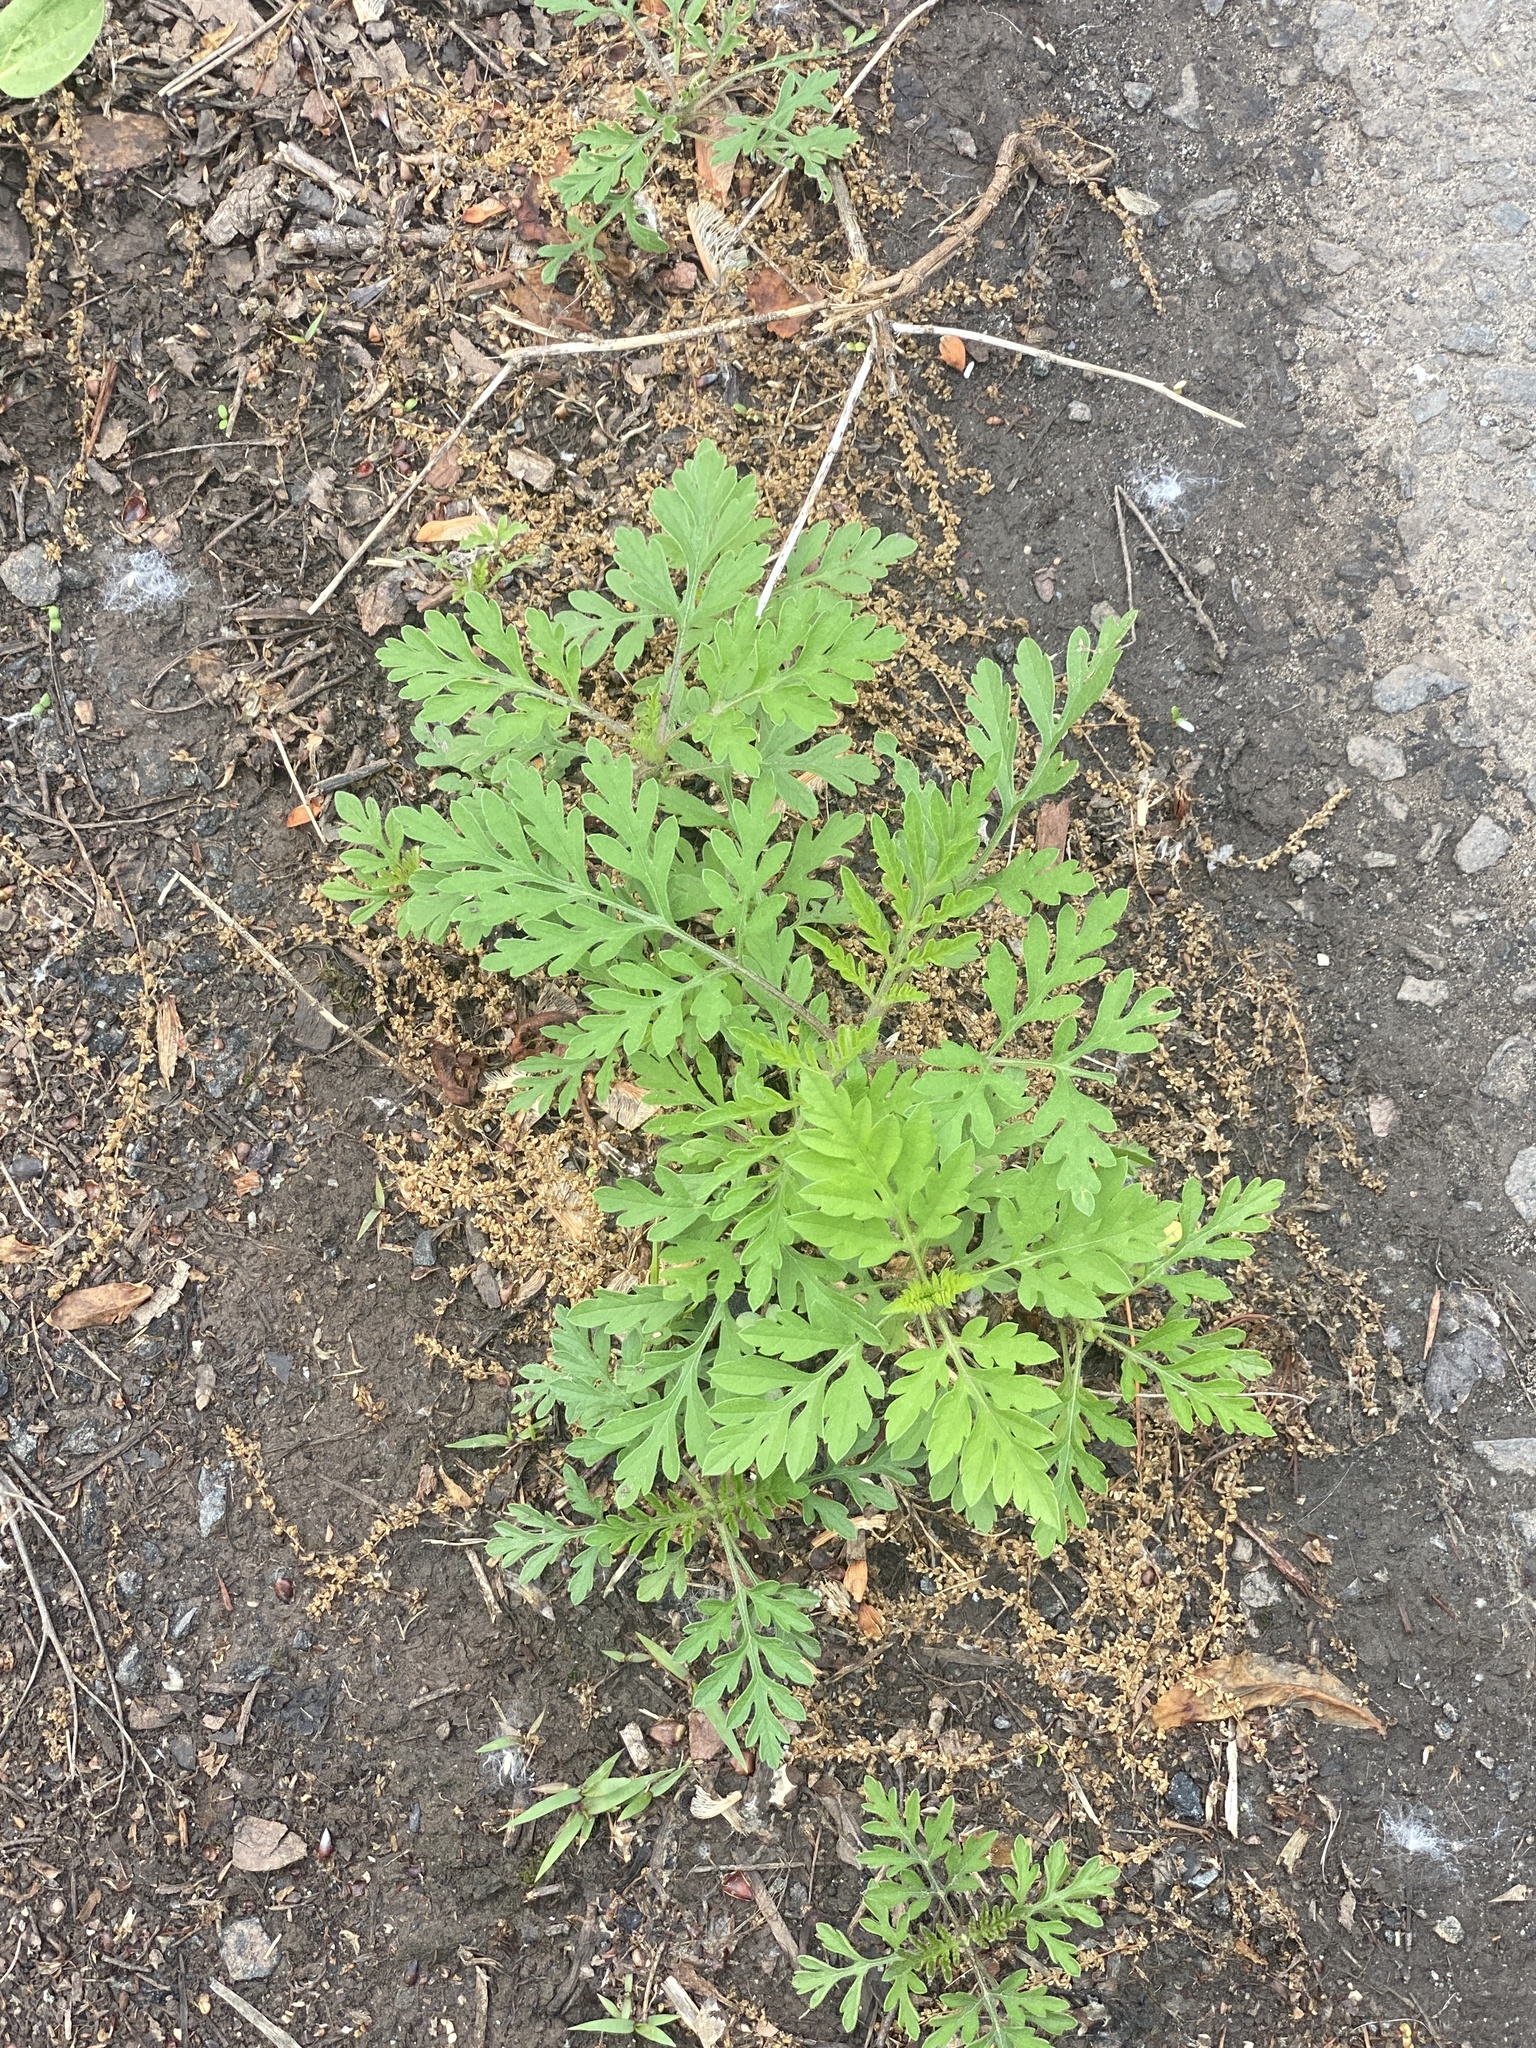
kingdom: Plantae
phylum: Tracheophyta
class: Magnoliopsida
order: Asterales
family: Asteraceae
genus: Ambrosia
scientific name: Ambrosia artemisiifolia
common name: Annual ragweed
